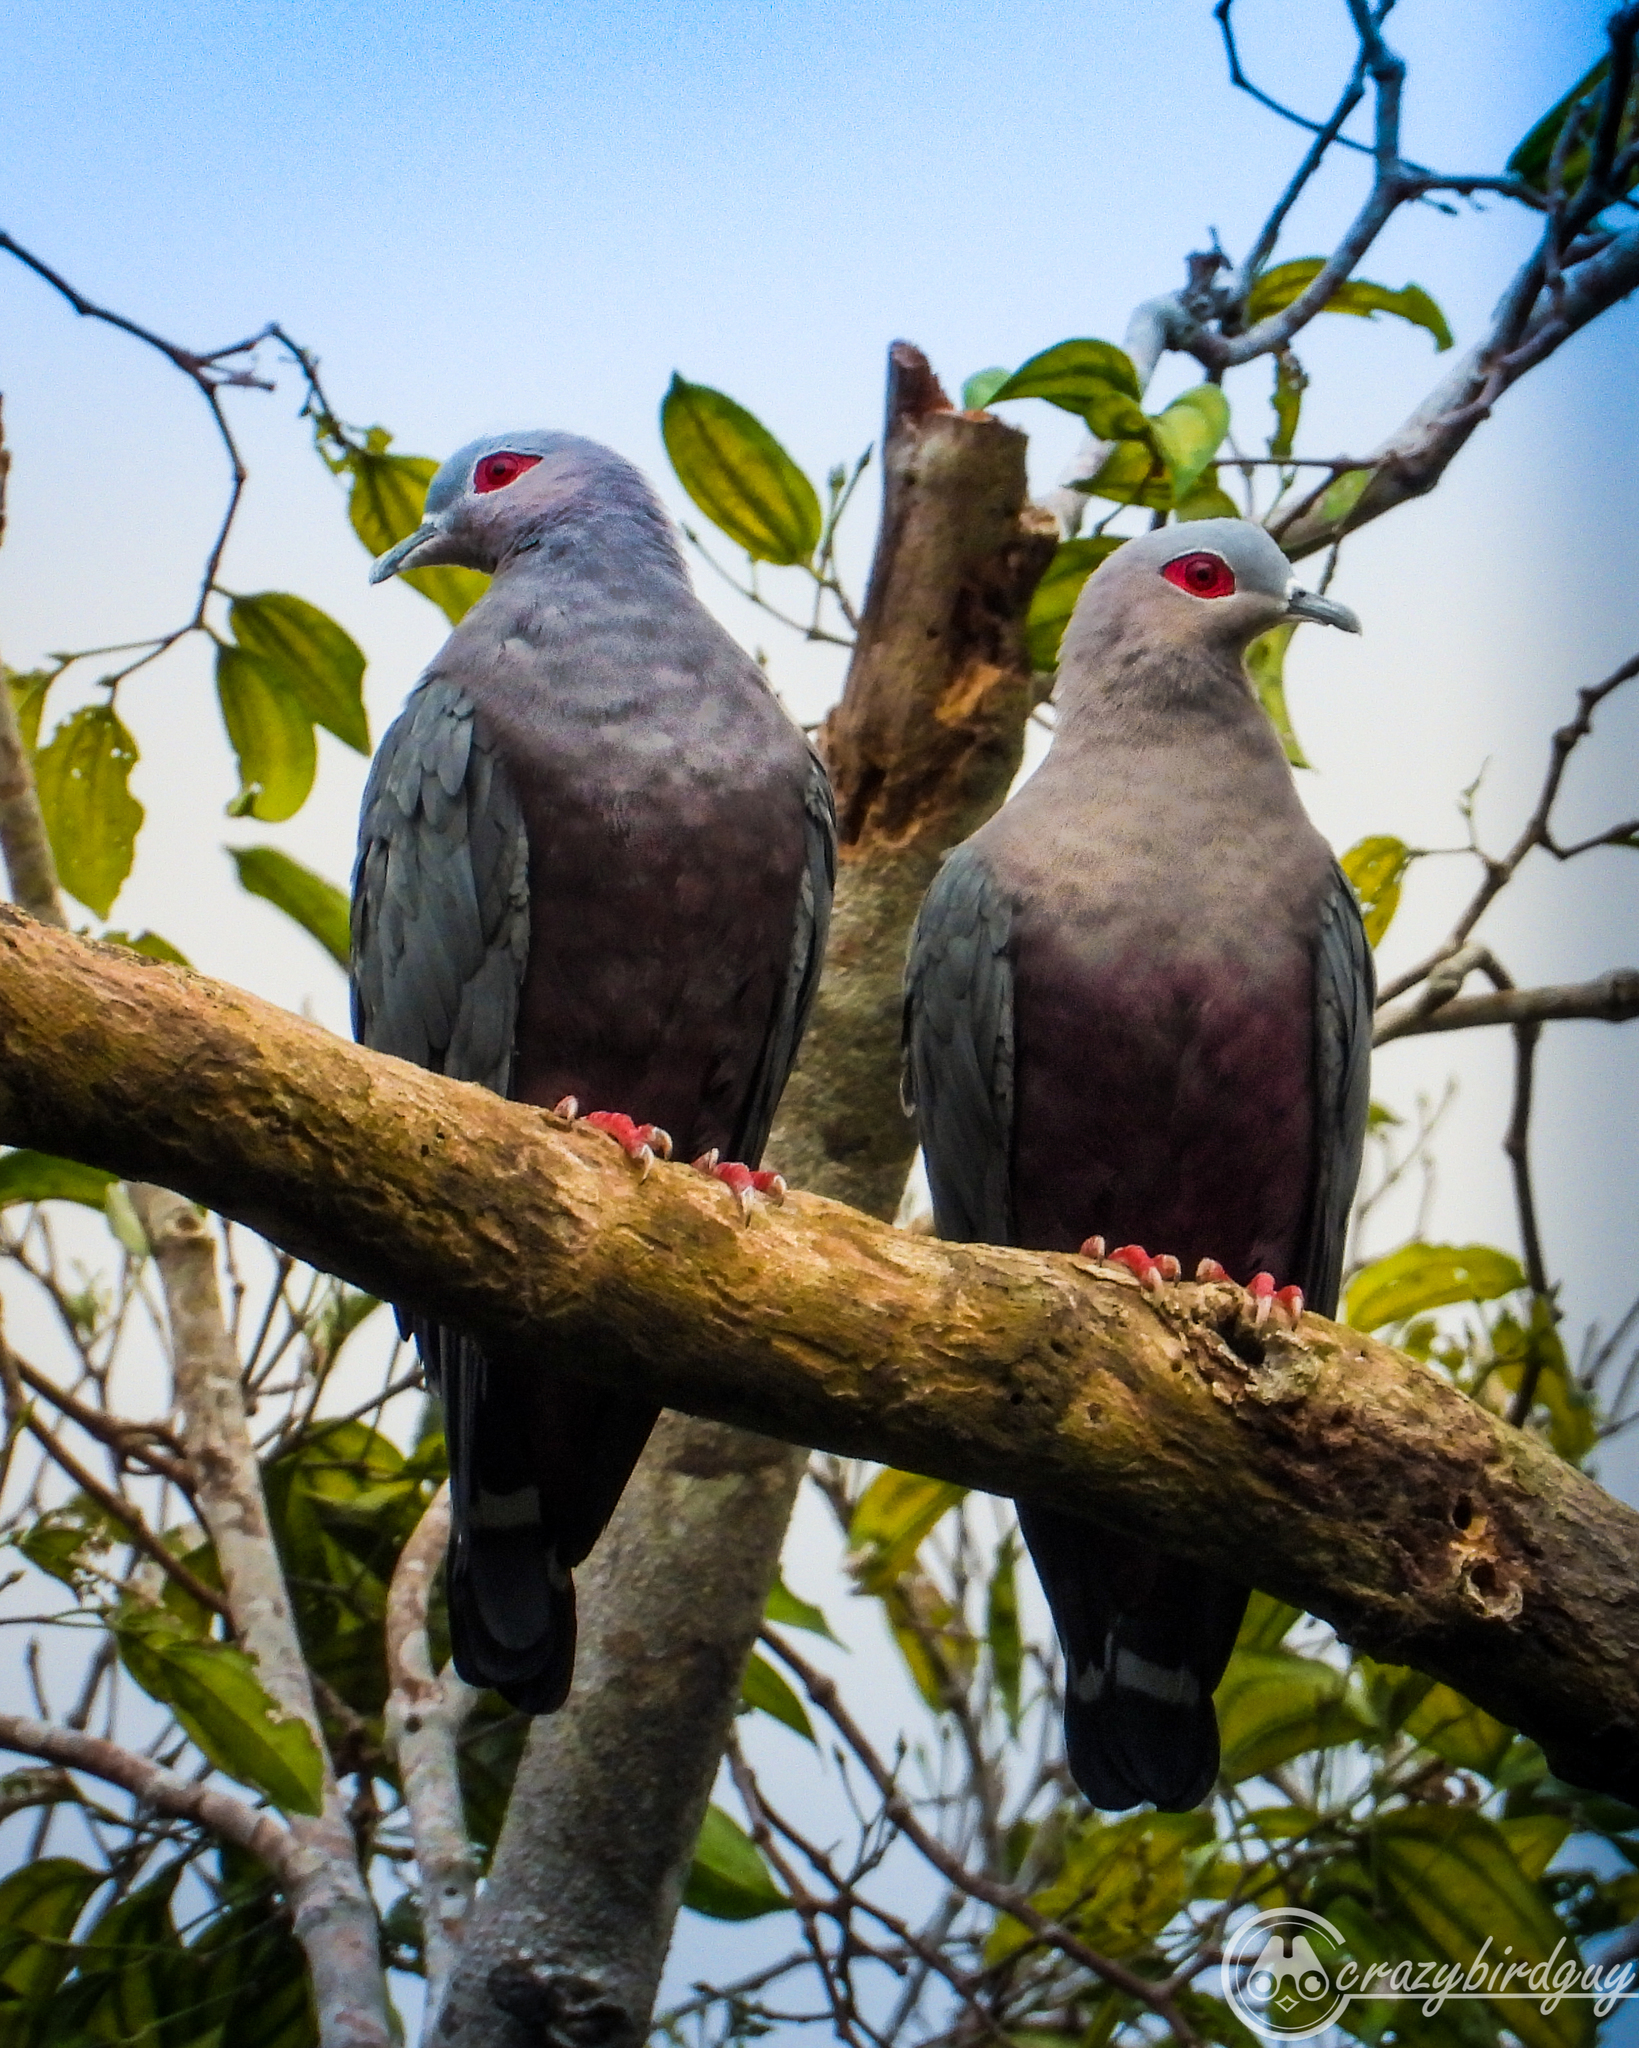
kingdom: Animalia
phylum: Chordata
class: Aves
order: Columbiformes
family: Columbidae
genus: Ducula
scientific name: Ducula pinon
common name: Pinon's imperial pigeon
